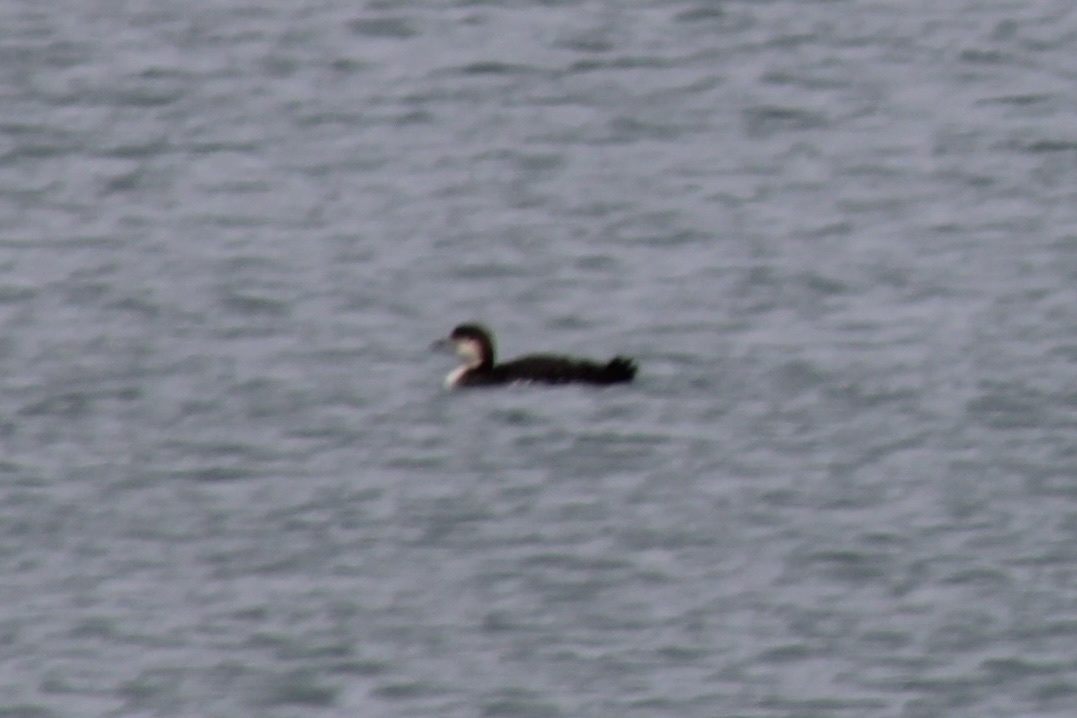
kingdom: Animalia
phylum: Chordata
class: Aves
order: Gaviiformes
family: Gaviidae
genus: Gavia
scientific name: Gavia immer
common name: Common loon
